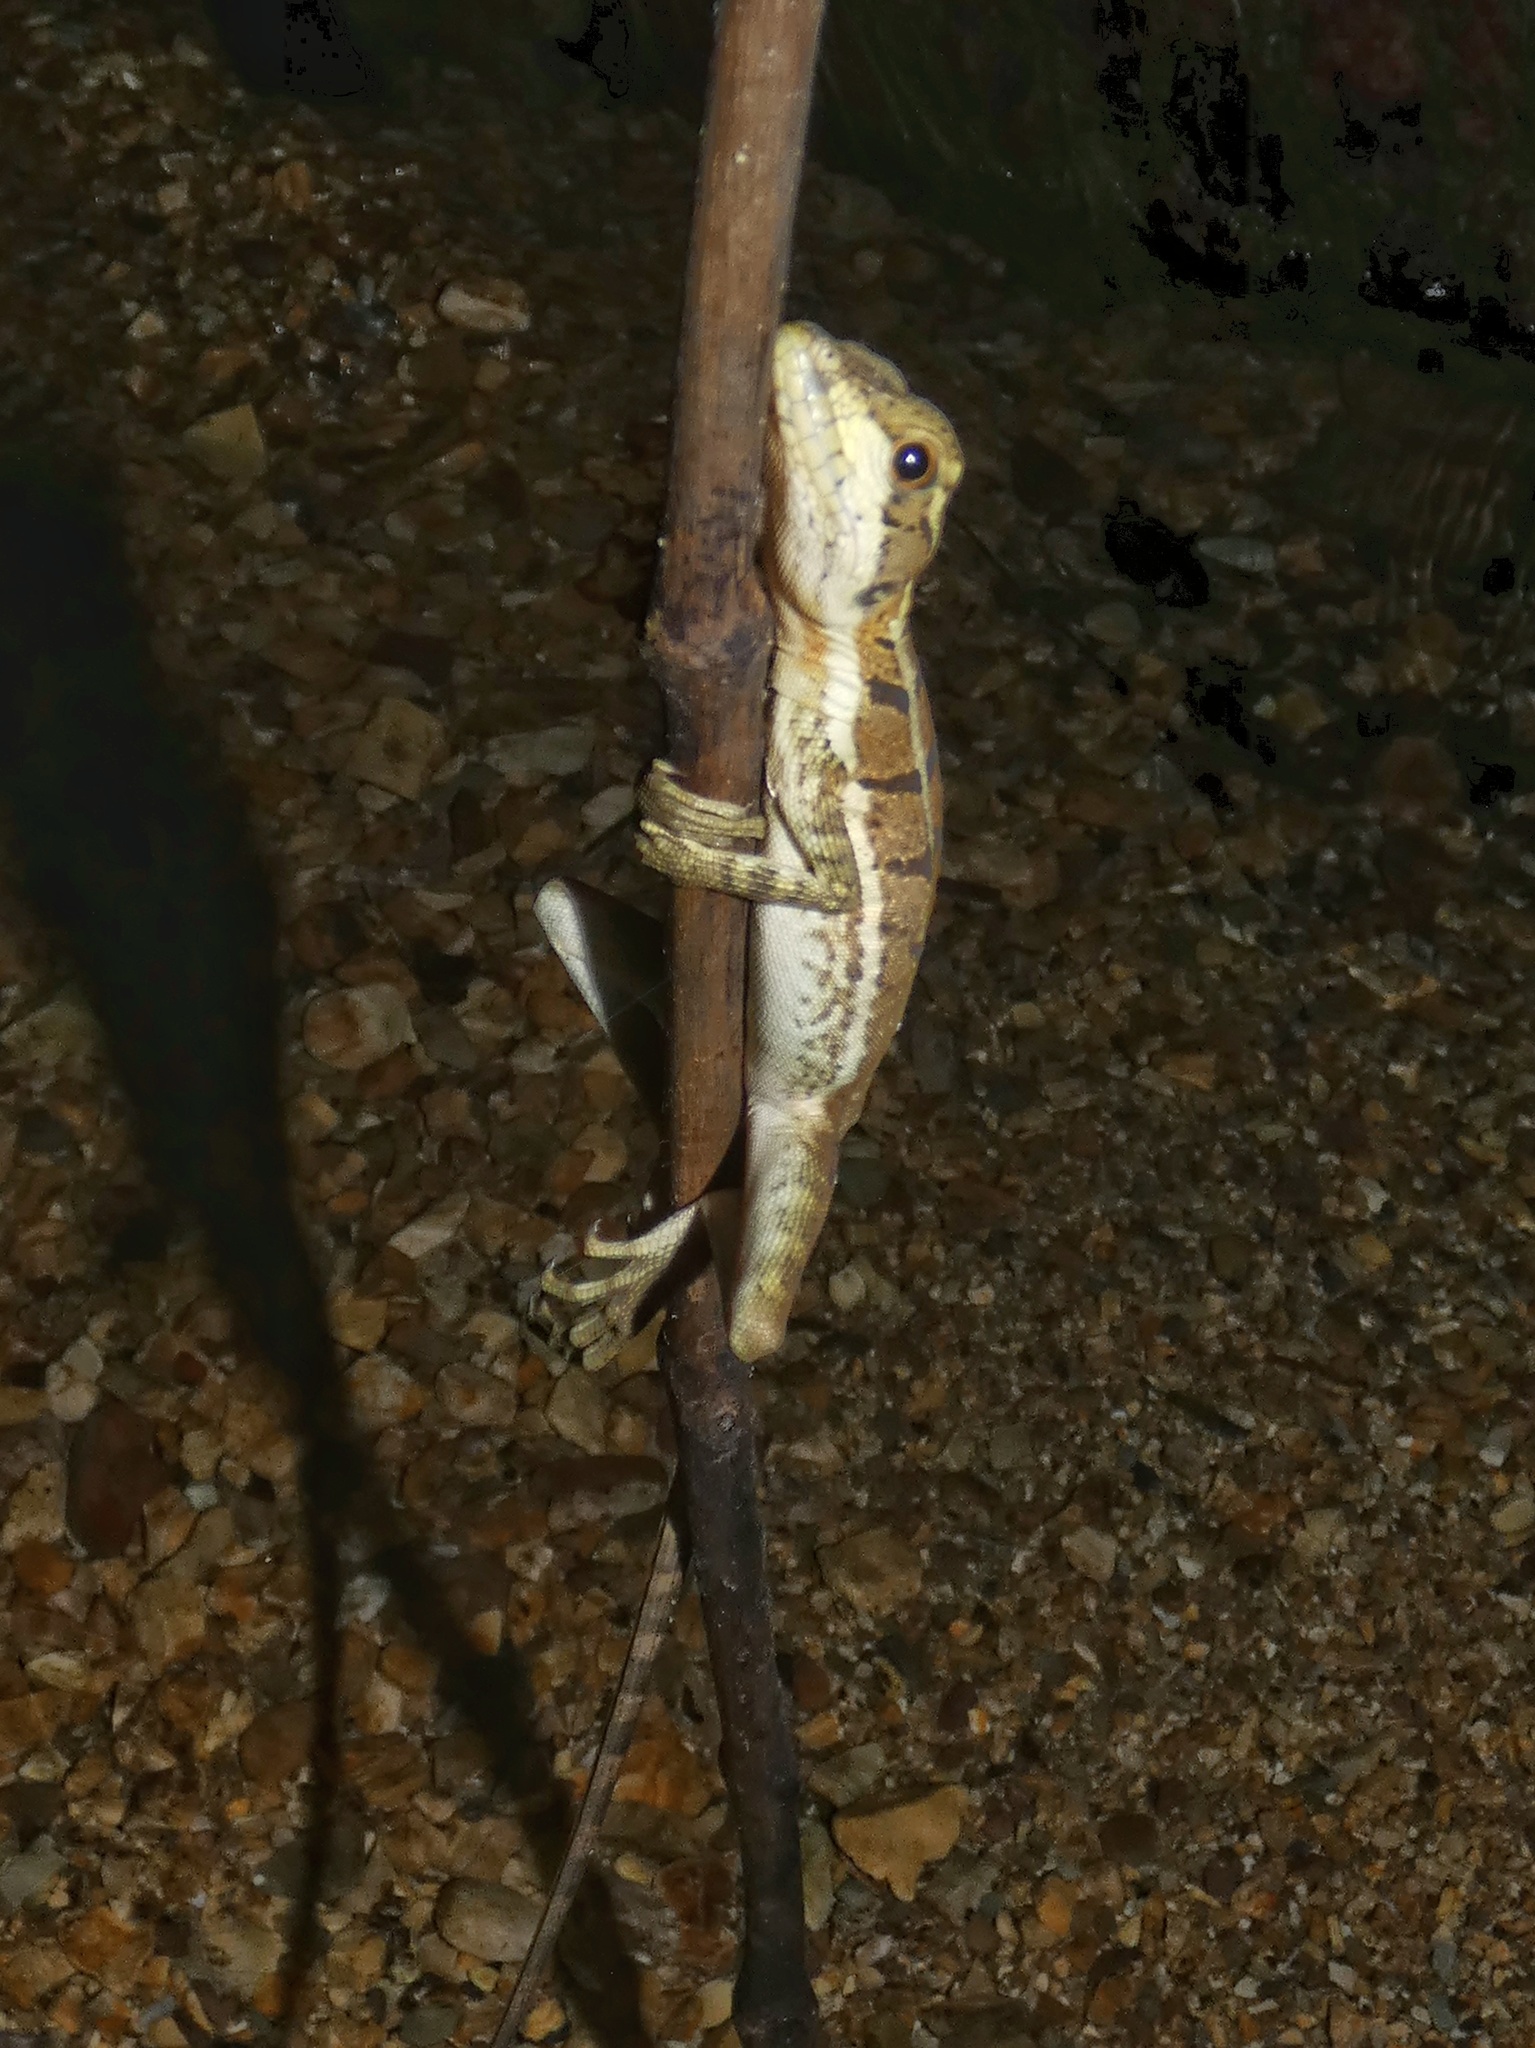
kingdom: Animalia
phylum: Chordata
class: Squamata
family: Corytophanidae
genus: Basiliscus
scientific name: Basiliscus basiliscus
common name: Common basilisk
